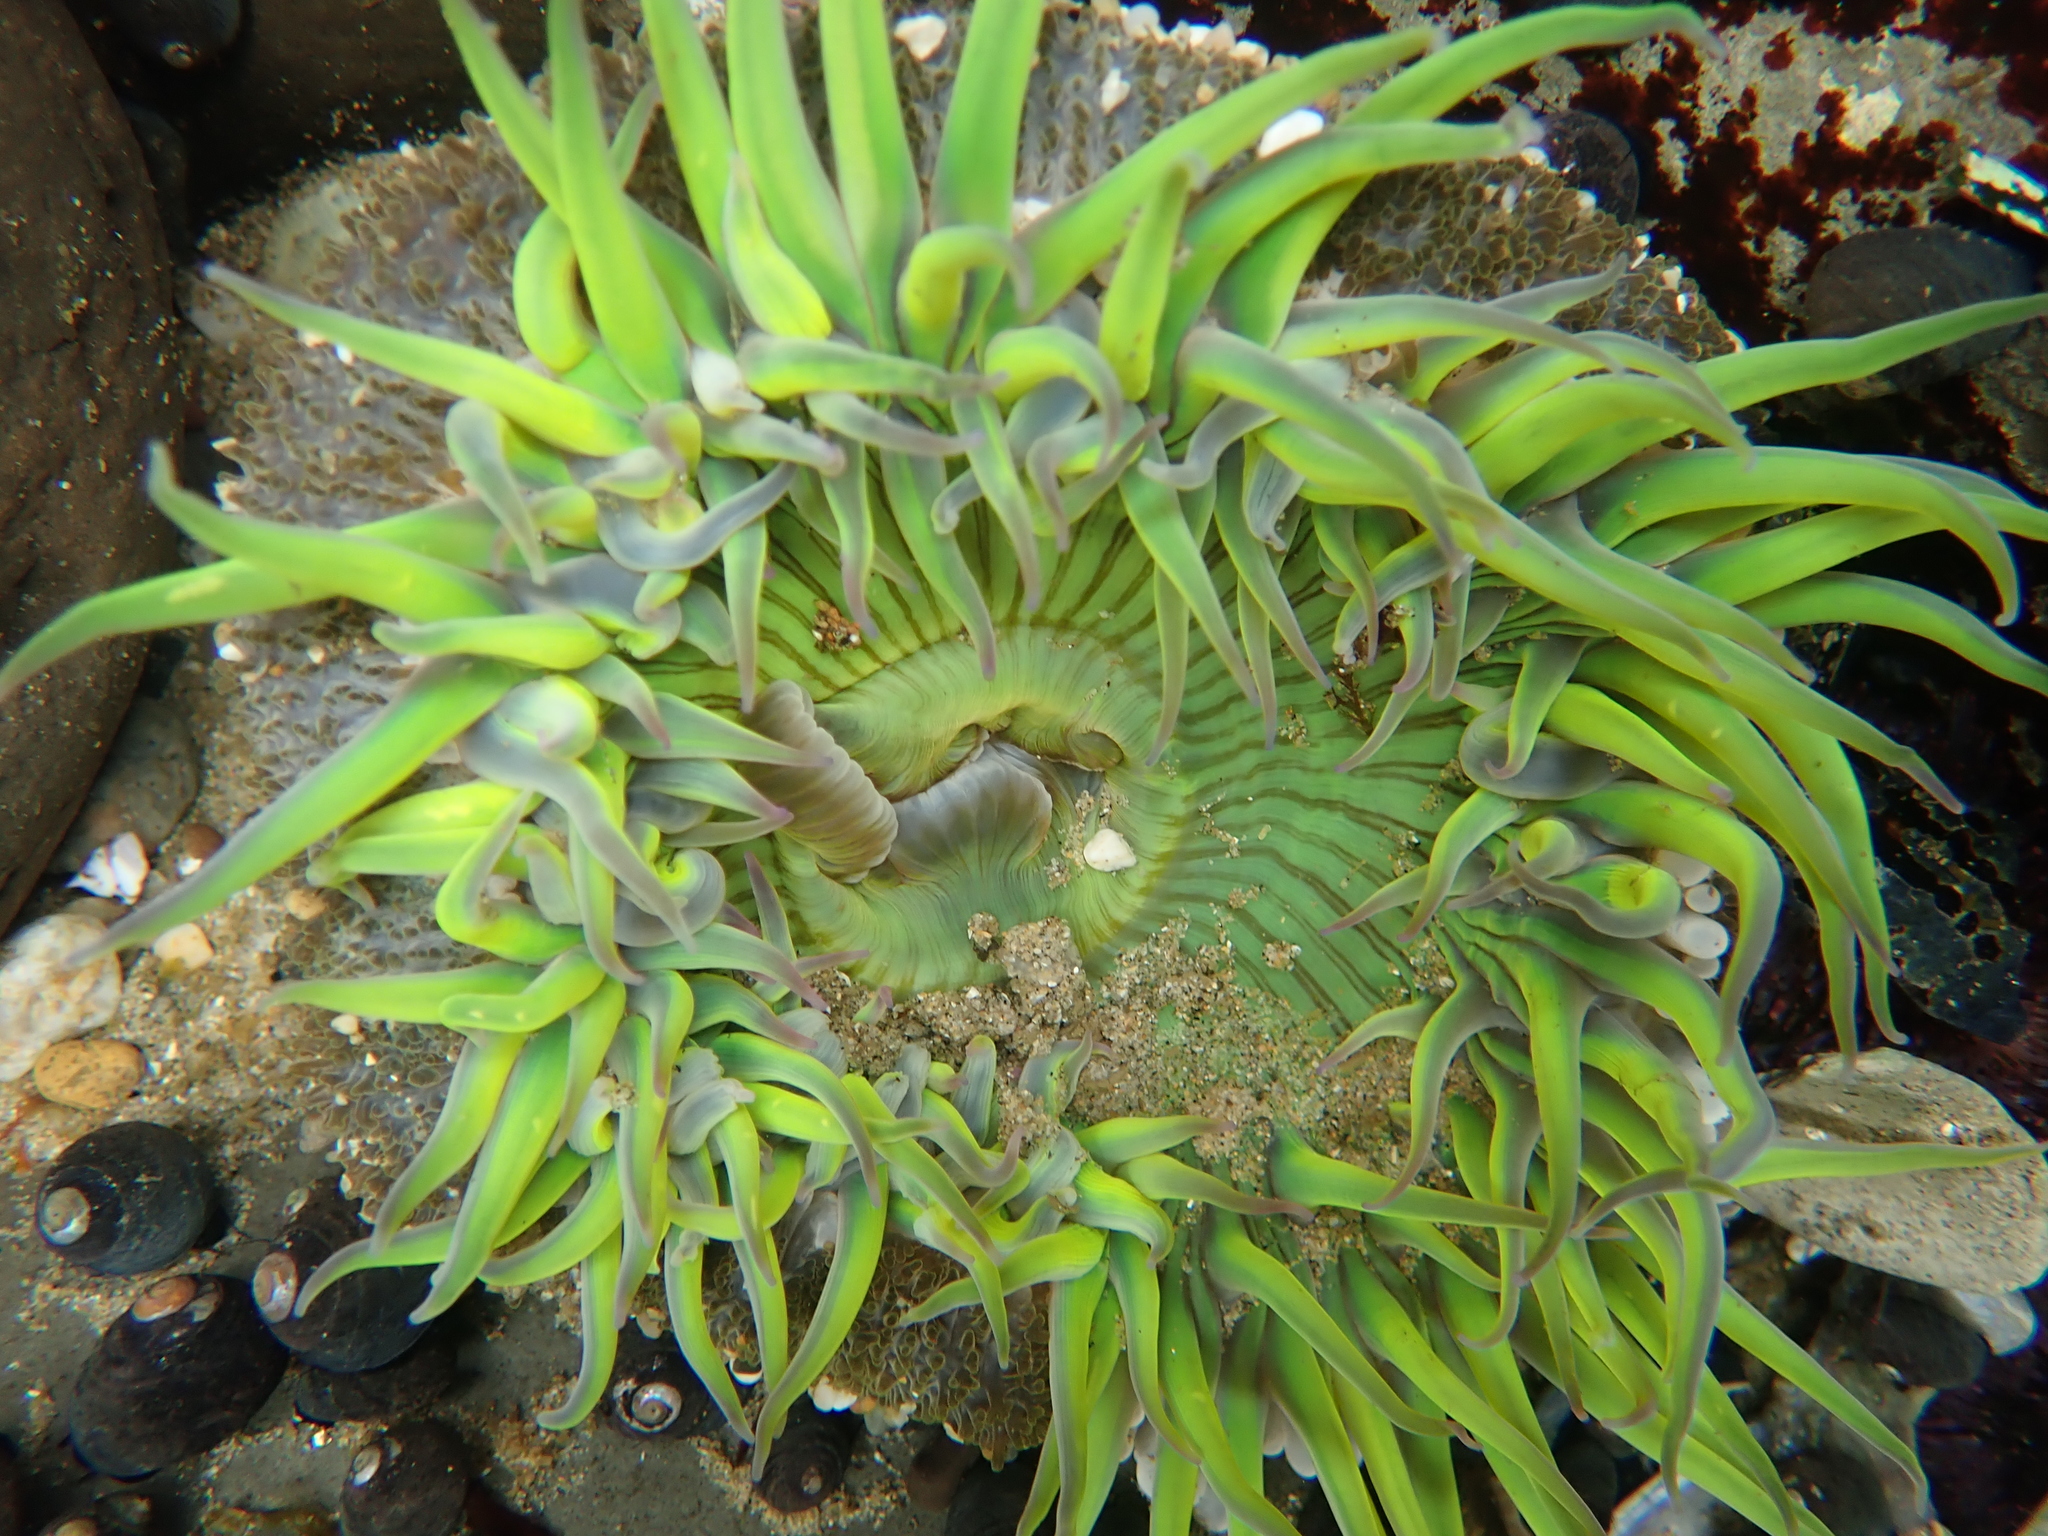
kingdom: Animalia
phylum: Cnidaria
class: Anthozoa
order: Actiniaria
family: Actiniidae
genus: Anthopleura
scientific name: Anthopleura sola
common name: Sun anemone
